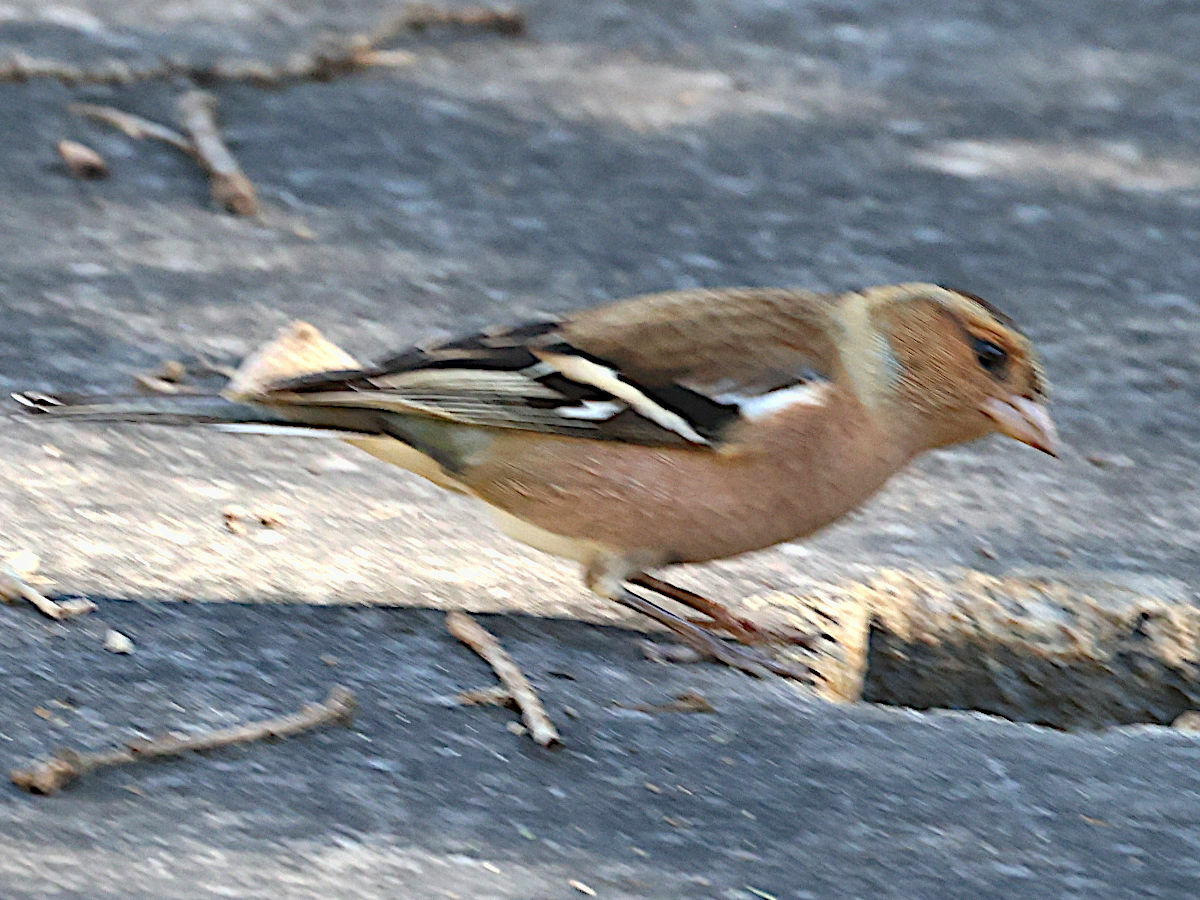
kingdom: Animalia
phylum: Chordata
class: Aves
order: Passeriformes
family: Fringillidae
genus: Fringilla
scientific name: Fringilla coelebs
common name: Common chaffinch
